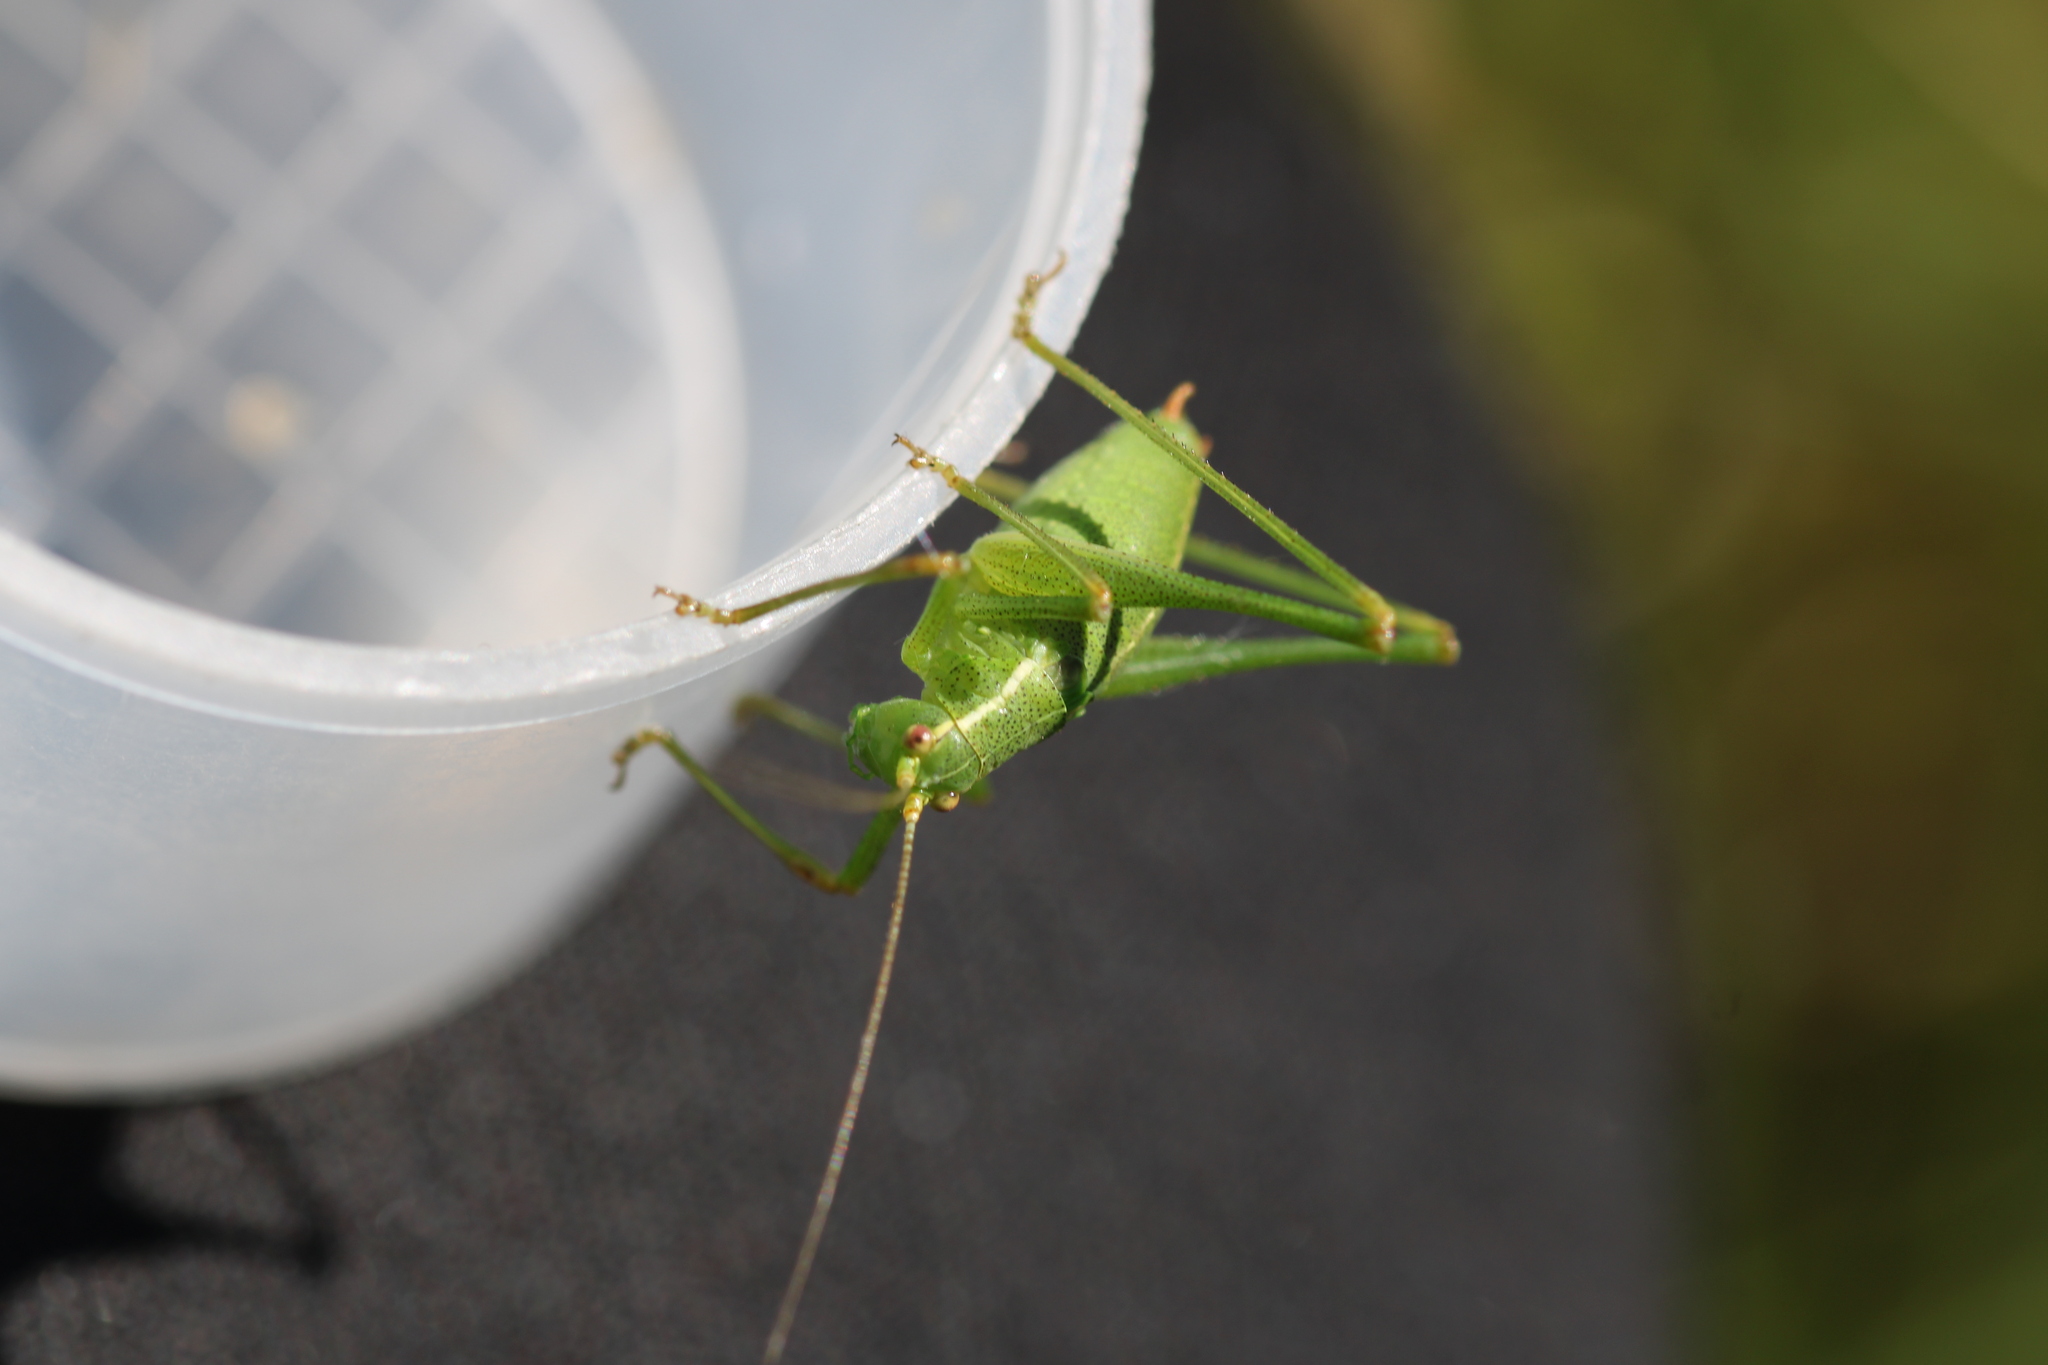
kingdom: Animalia
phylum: Arthropoda
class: Insecta
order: Orthoptera
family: Tettigoniidae
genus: Leptophyes
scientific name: Leptophyes punctatissima
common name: Speckled bush-cricket
